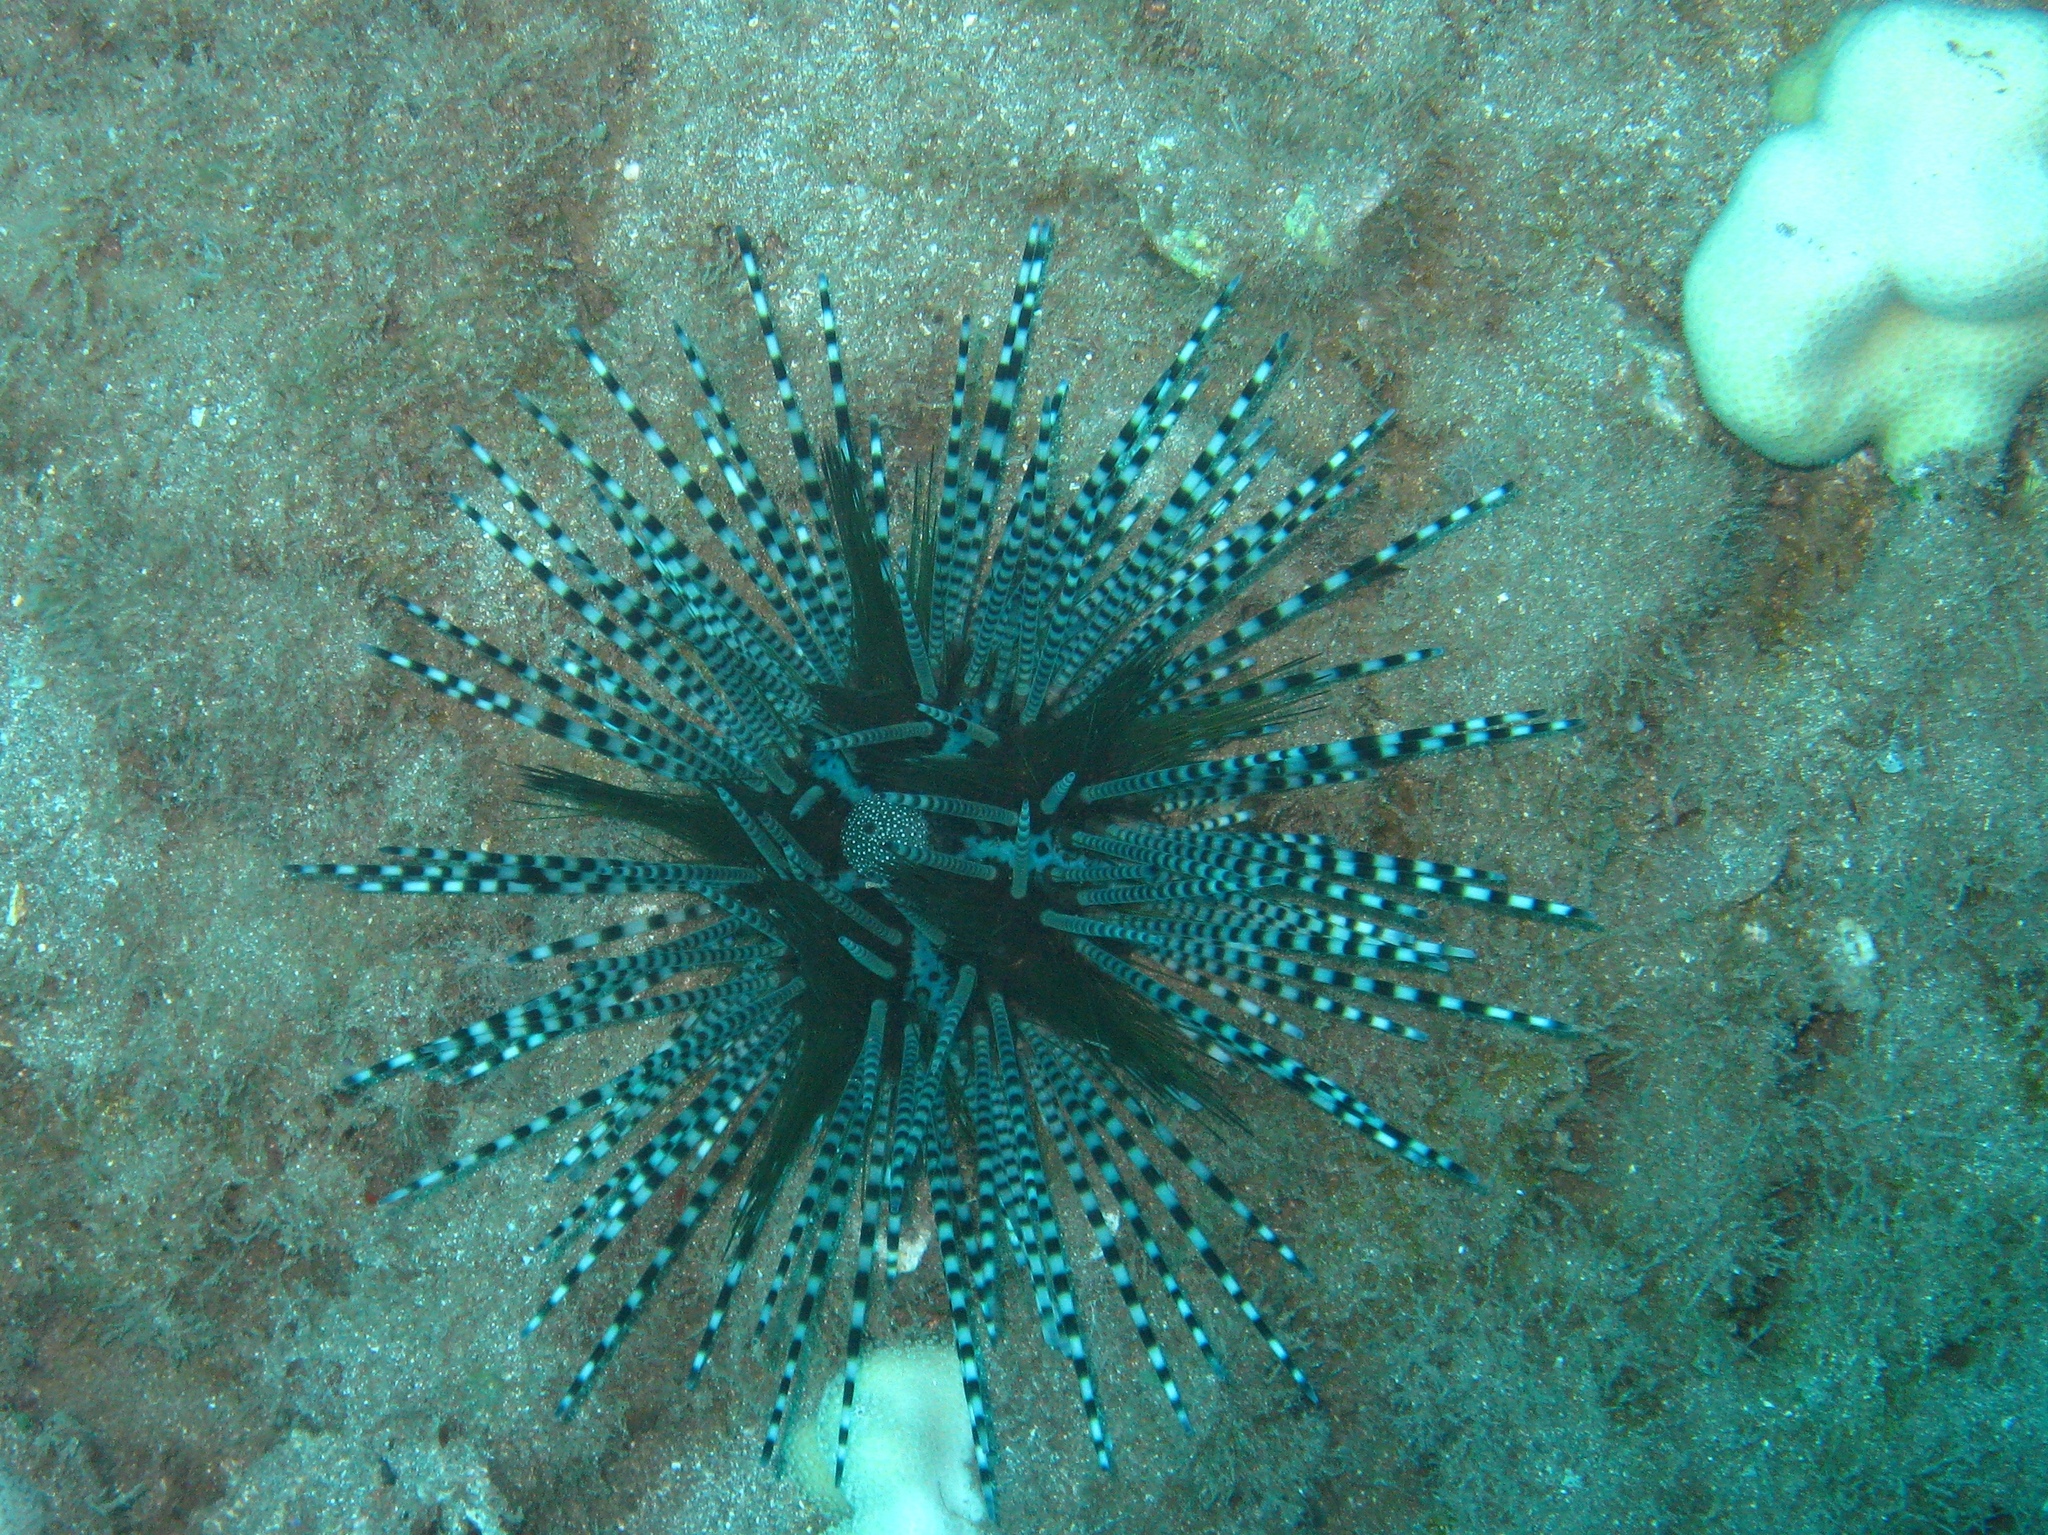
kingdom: Animalia
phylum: Echinodermata
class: Echinoidea
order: Diadematoida
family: Diadematidae
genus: Echinothrix
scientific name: Echinothrix calamaris
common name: Banded sea urchin
